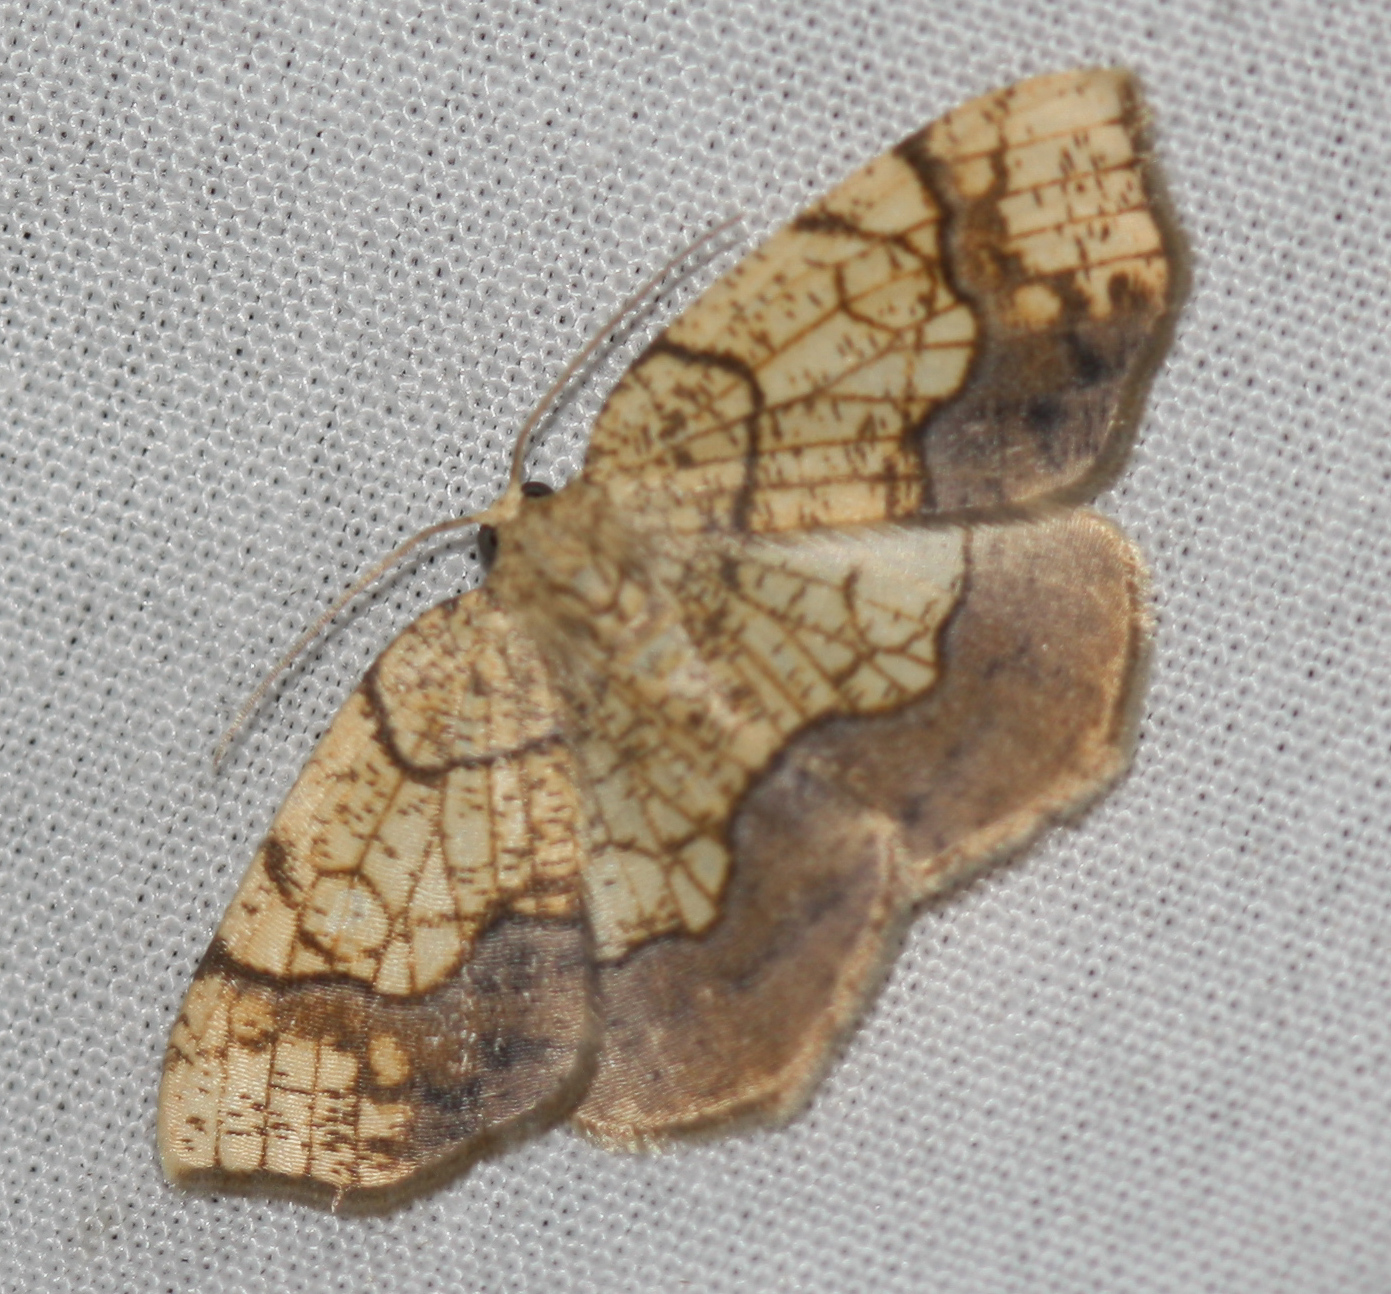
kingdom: Animalia
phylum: Arthropoda
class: Insecta
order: Lepidoptera
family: Geometridae
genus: Nematocampa
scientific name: Nematocampa resistaria
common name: Horned spanworm moth
